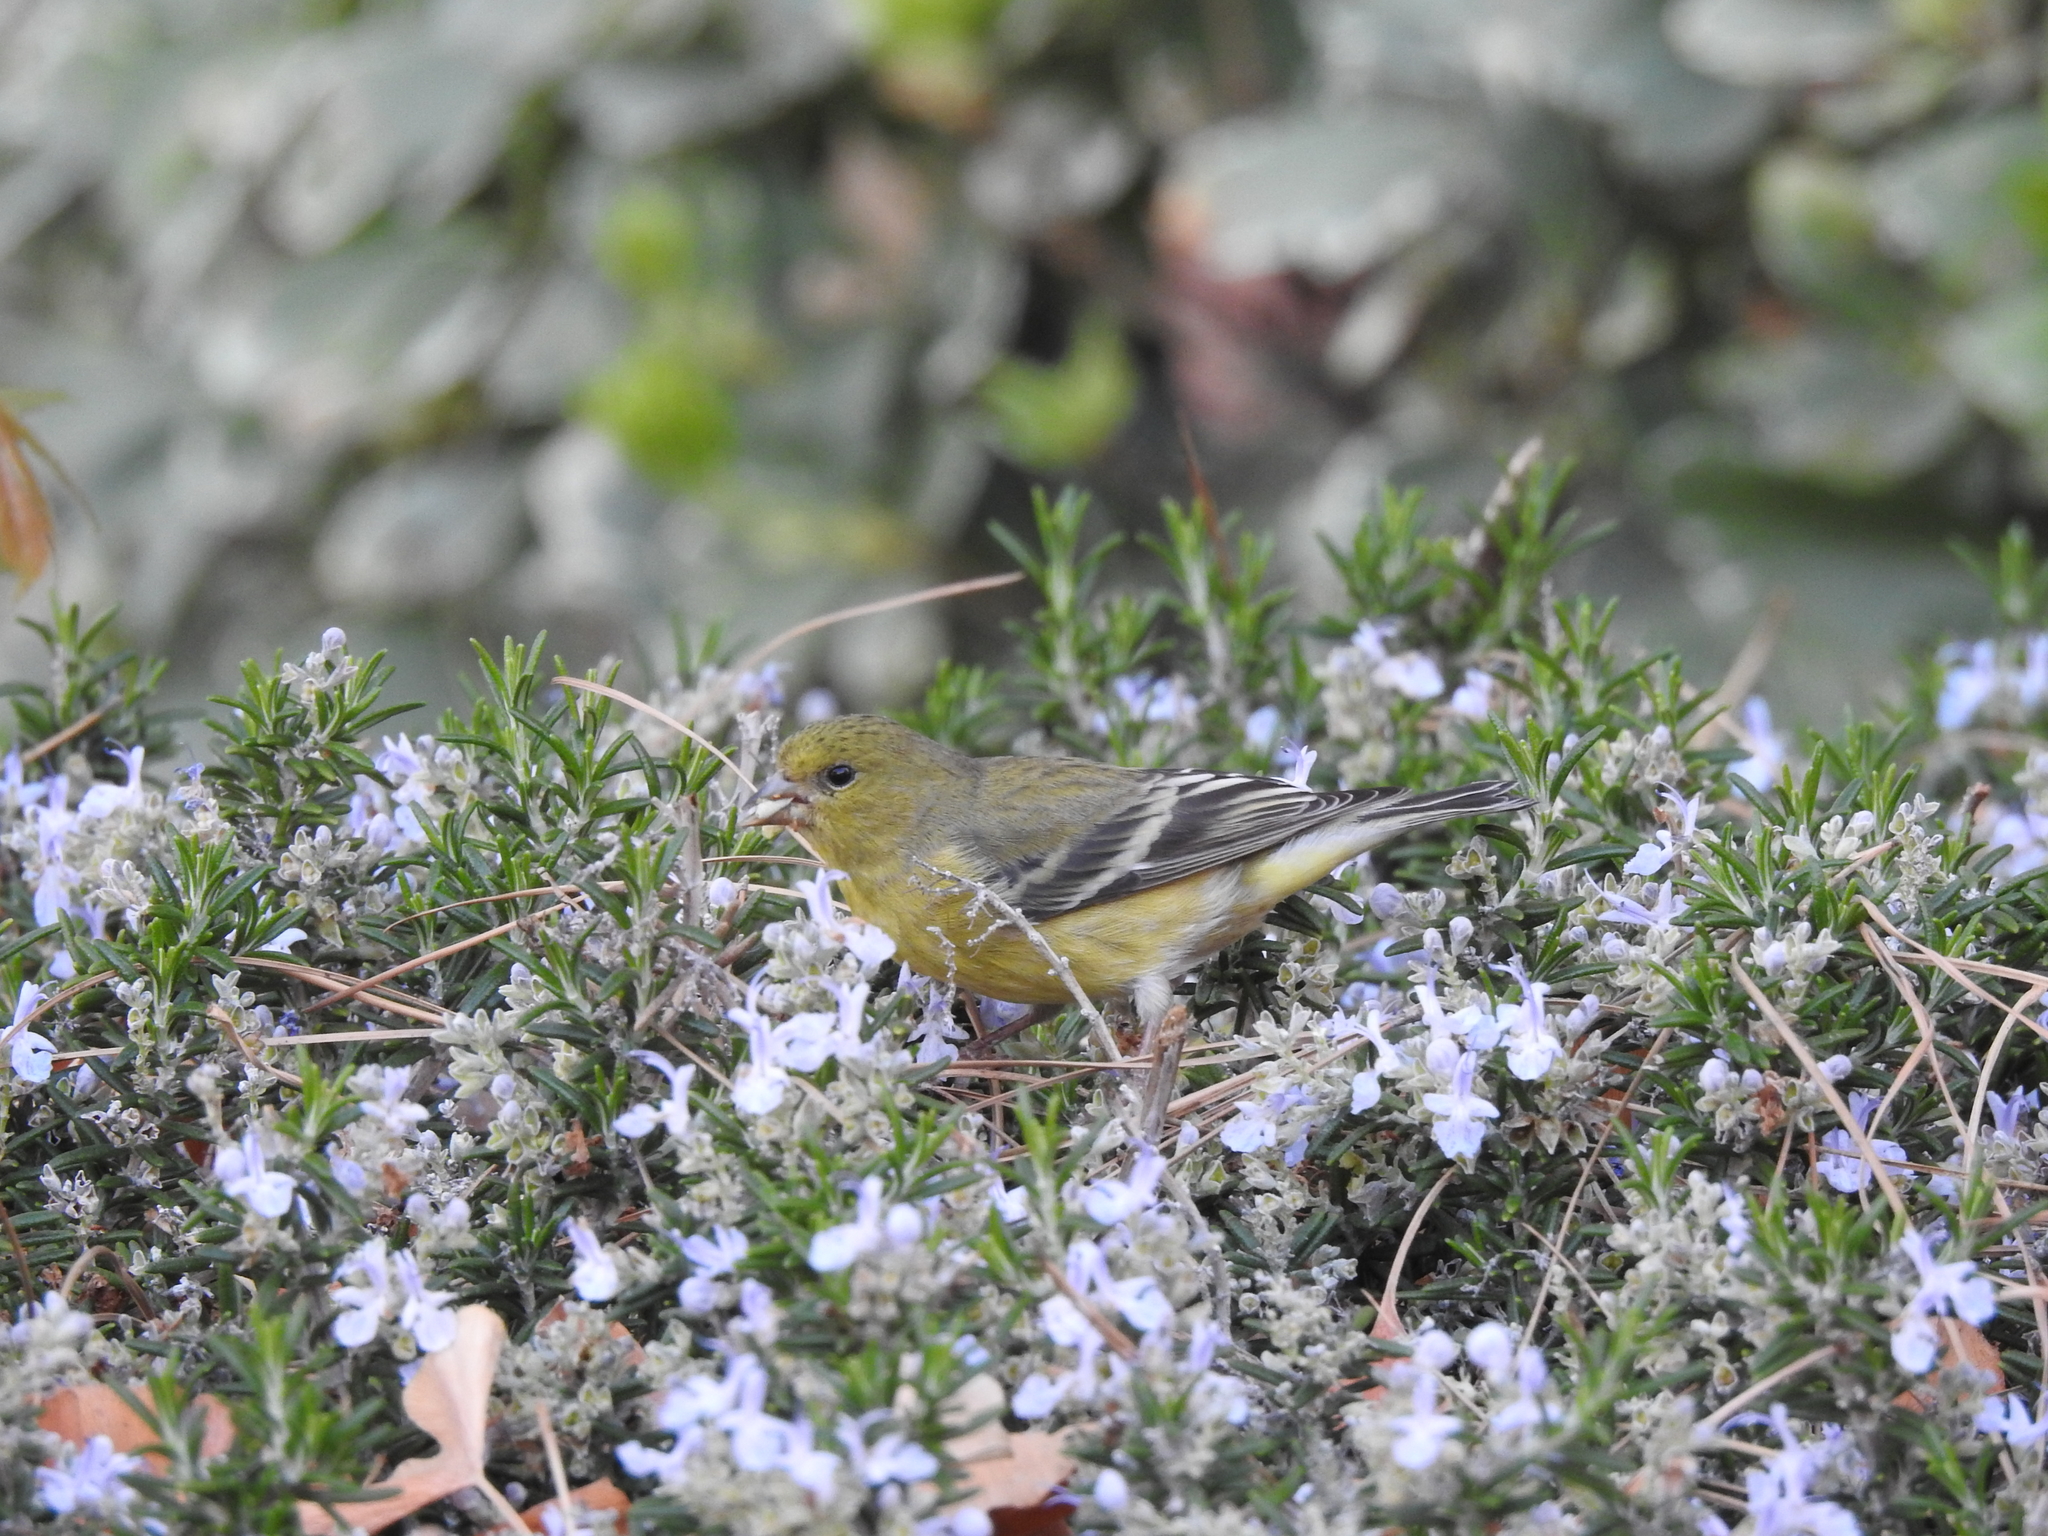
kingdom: Animalia
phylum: Chordata
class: Aves
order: Passeriformes
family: Fringillidae
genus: Spinus
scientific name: Spinus psaltria
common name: Lesser goldfinch
